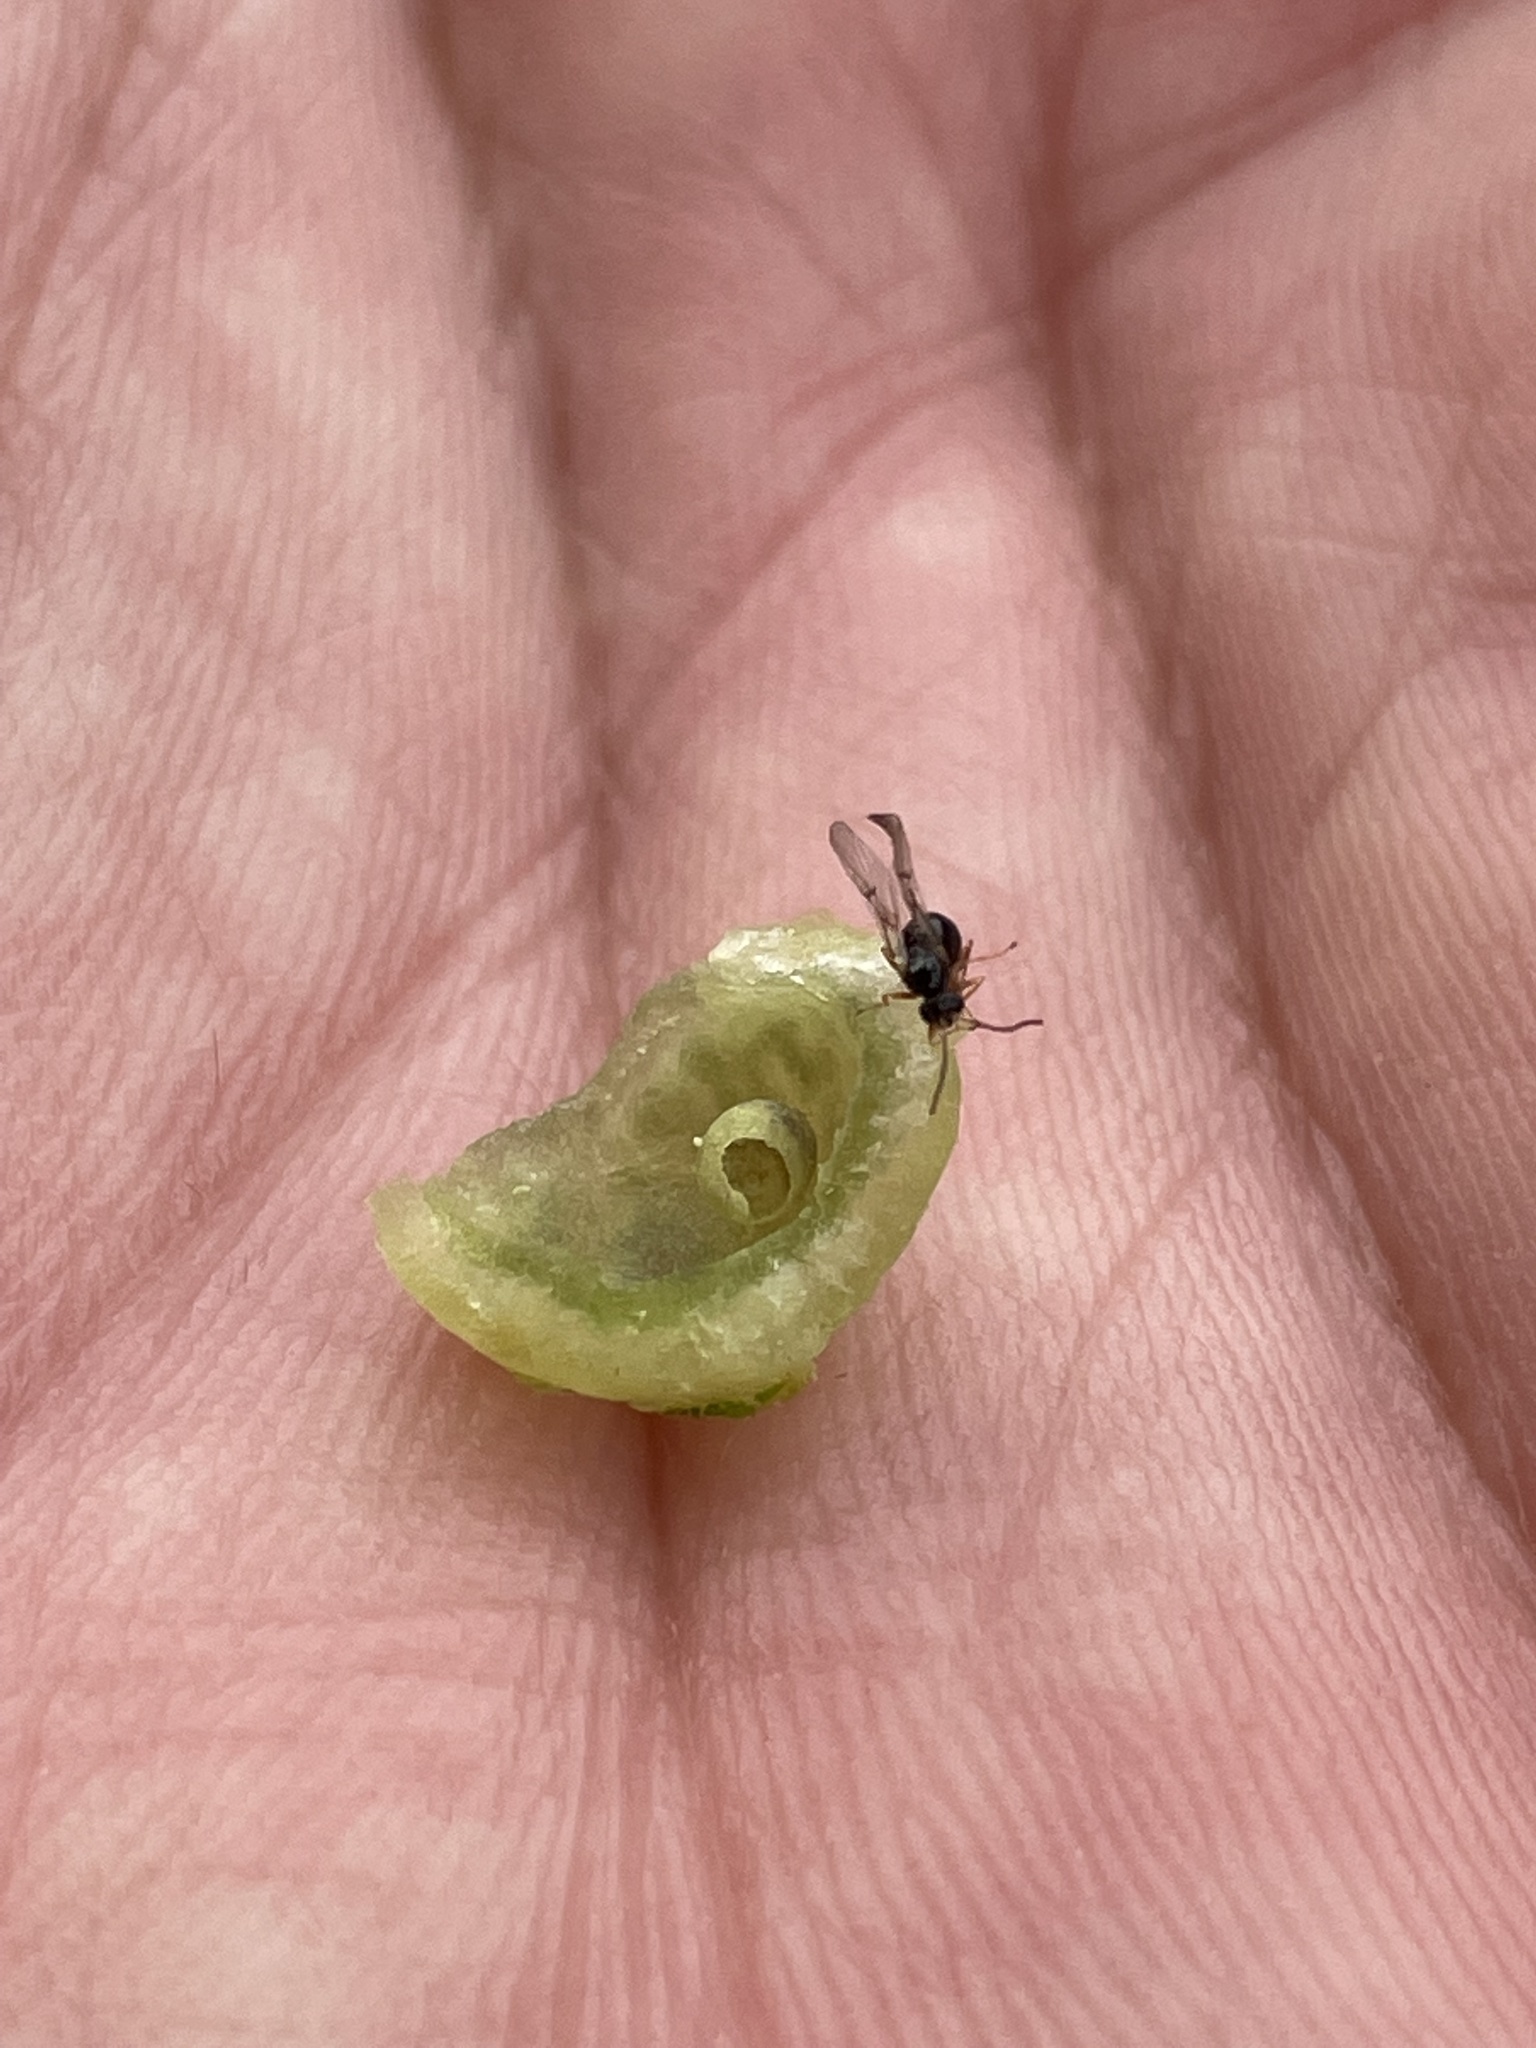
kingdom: Animalia
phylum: Arthropoda
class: Insecta
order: Hymenoptera
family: Cynipidae
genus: Dryocosmus
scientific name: Dryocosmus quercuspalustris
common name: Succulent oak gall wasp
